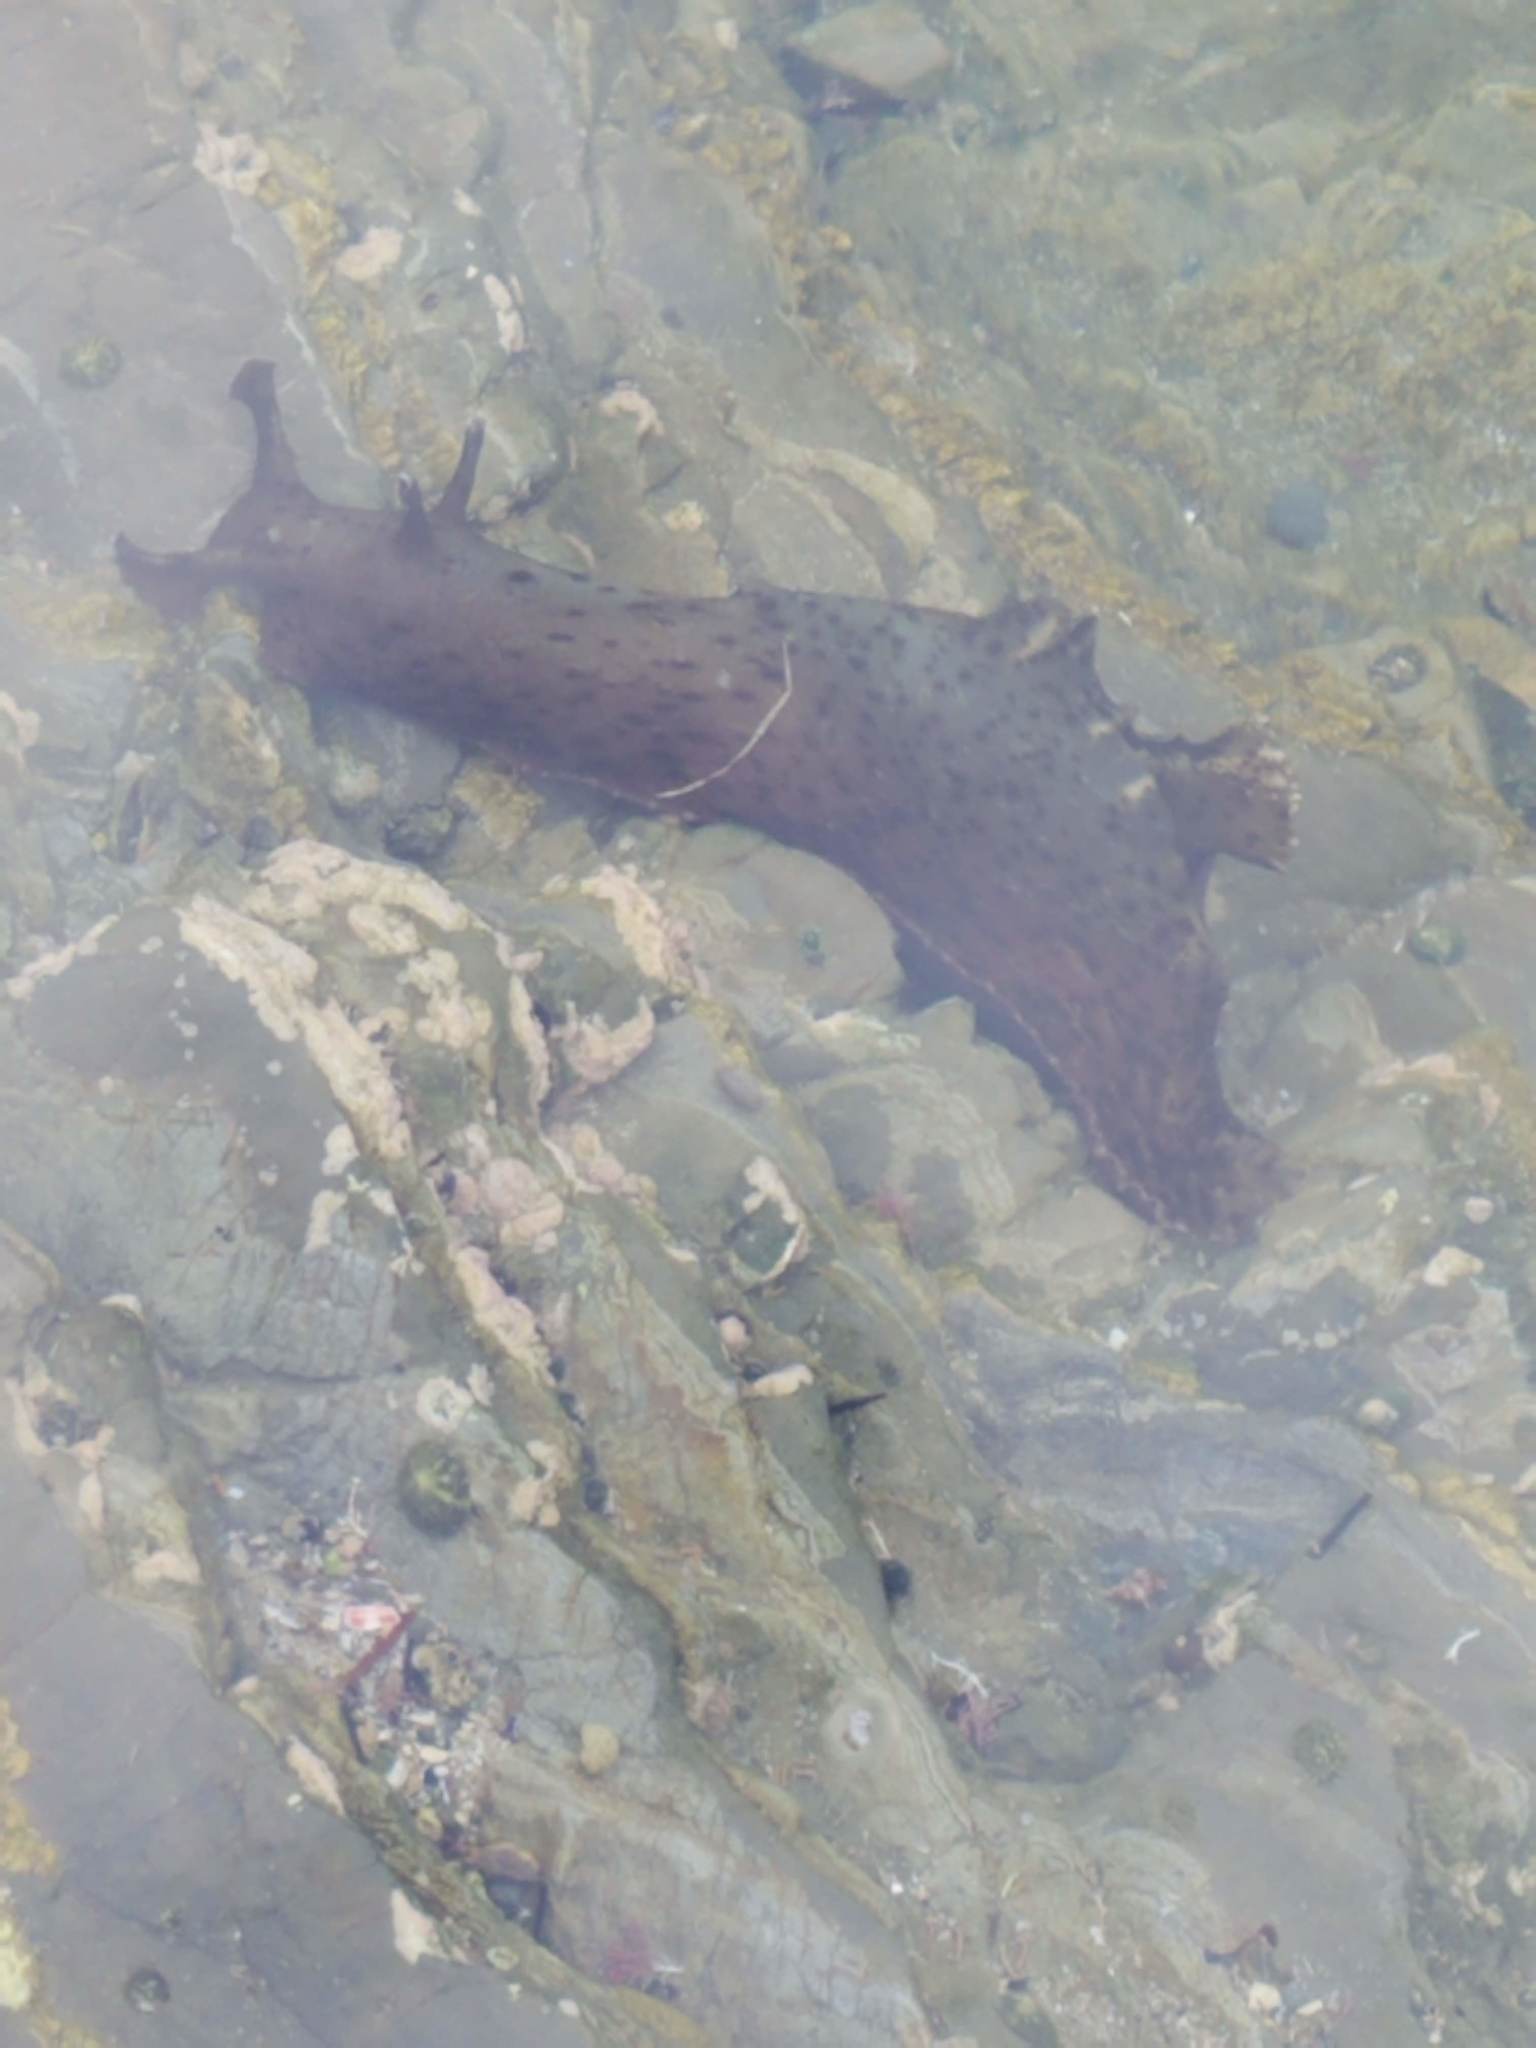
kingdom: Animalia
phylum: Mollusca
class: Gastropoda
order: Aplysiida
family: Aplysiidae
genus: Aplysia
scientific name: Aplysia californica
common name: California seahare
